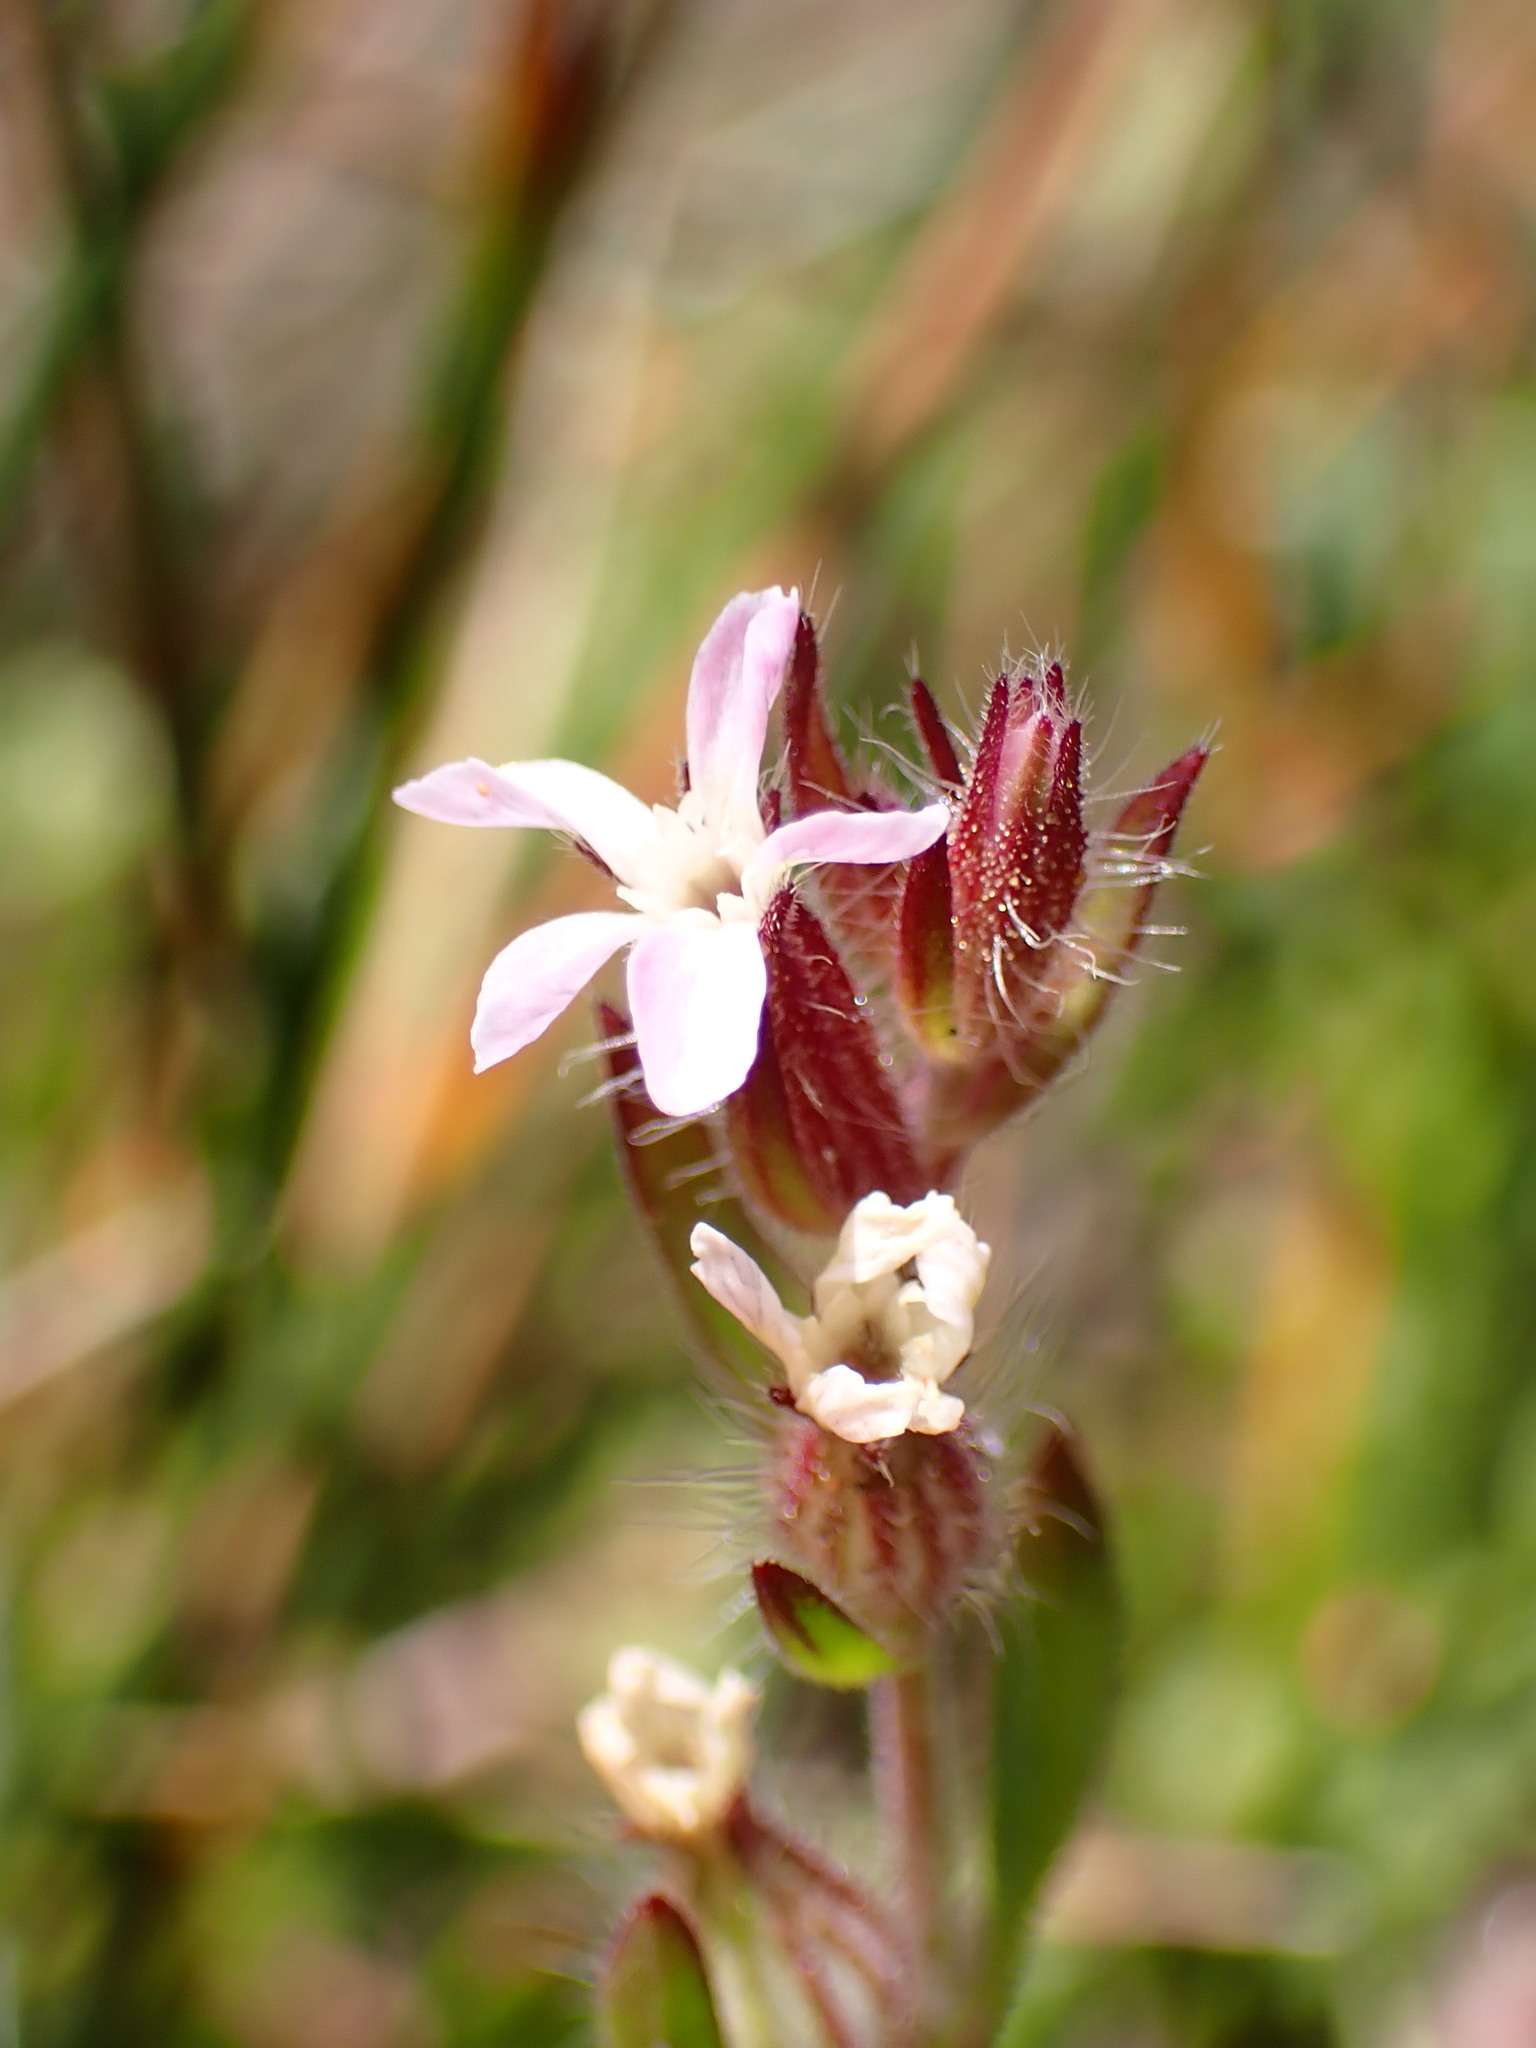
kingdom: Plantae
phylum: Tracheophyta
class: Magnoliopsida
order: Caryophyllales
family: Caryophyllaceae
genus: Silene
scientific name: Silene gallica
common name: Small-flowered catchfly
